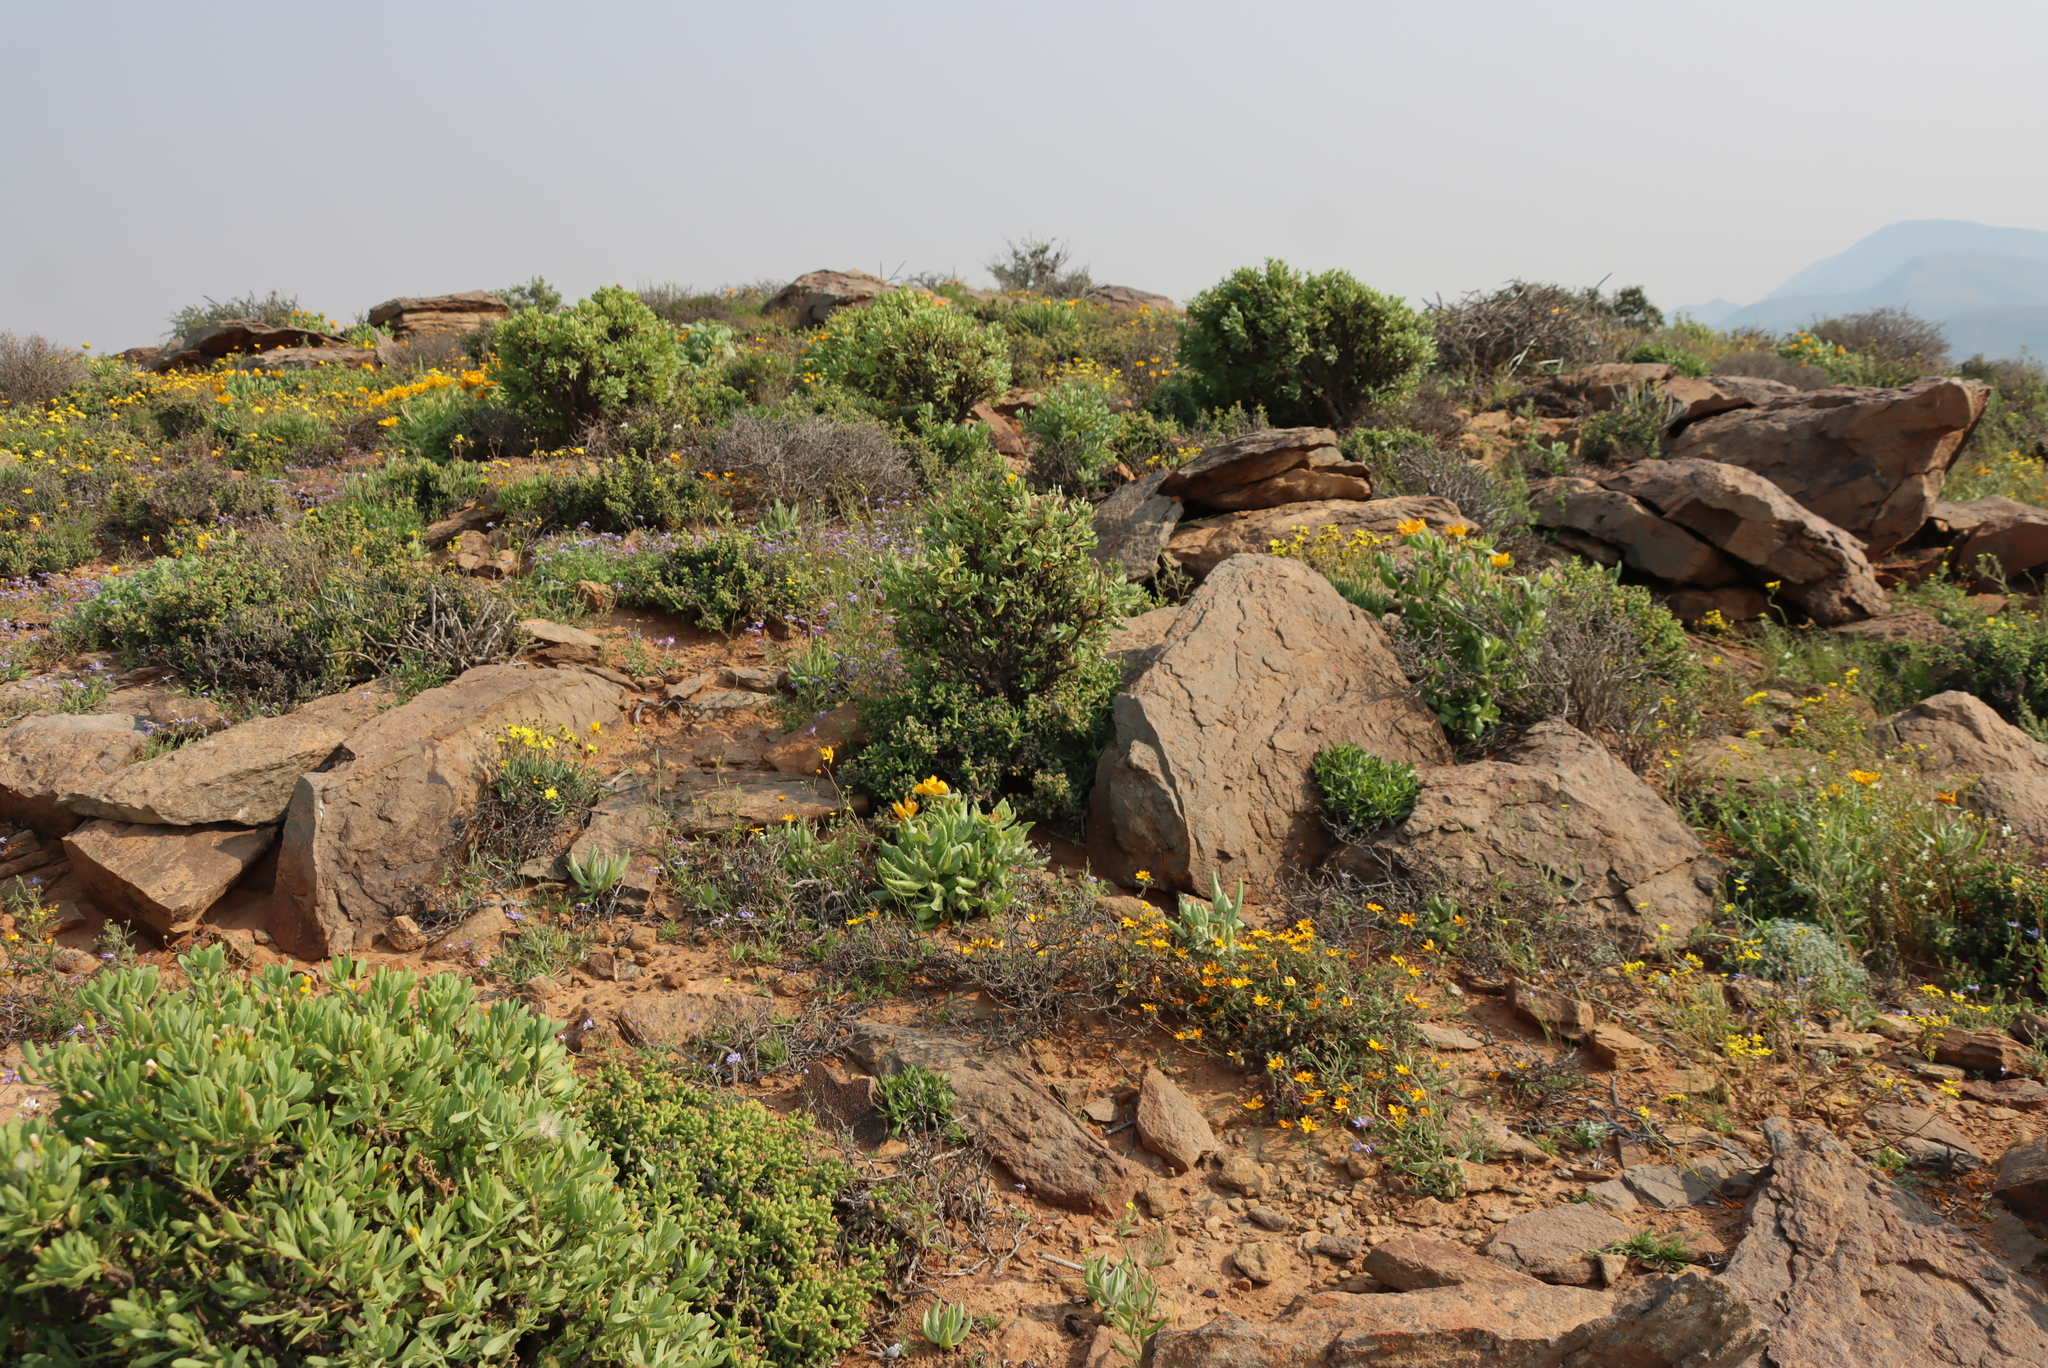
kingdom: Plantae
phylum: Tracheophyta
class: Magnoliopsida
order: Asterales
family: Asteraceae
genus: Othonna
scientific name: Othonna lasiocarpa
